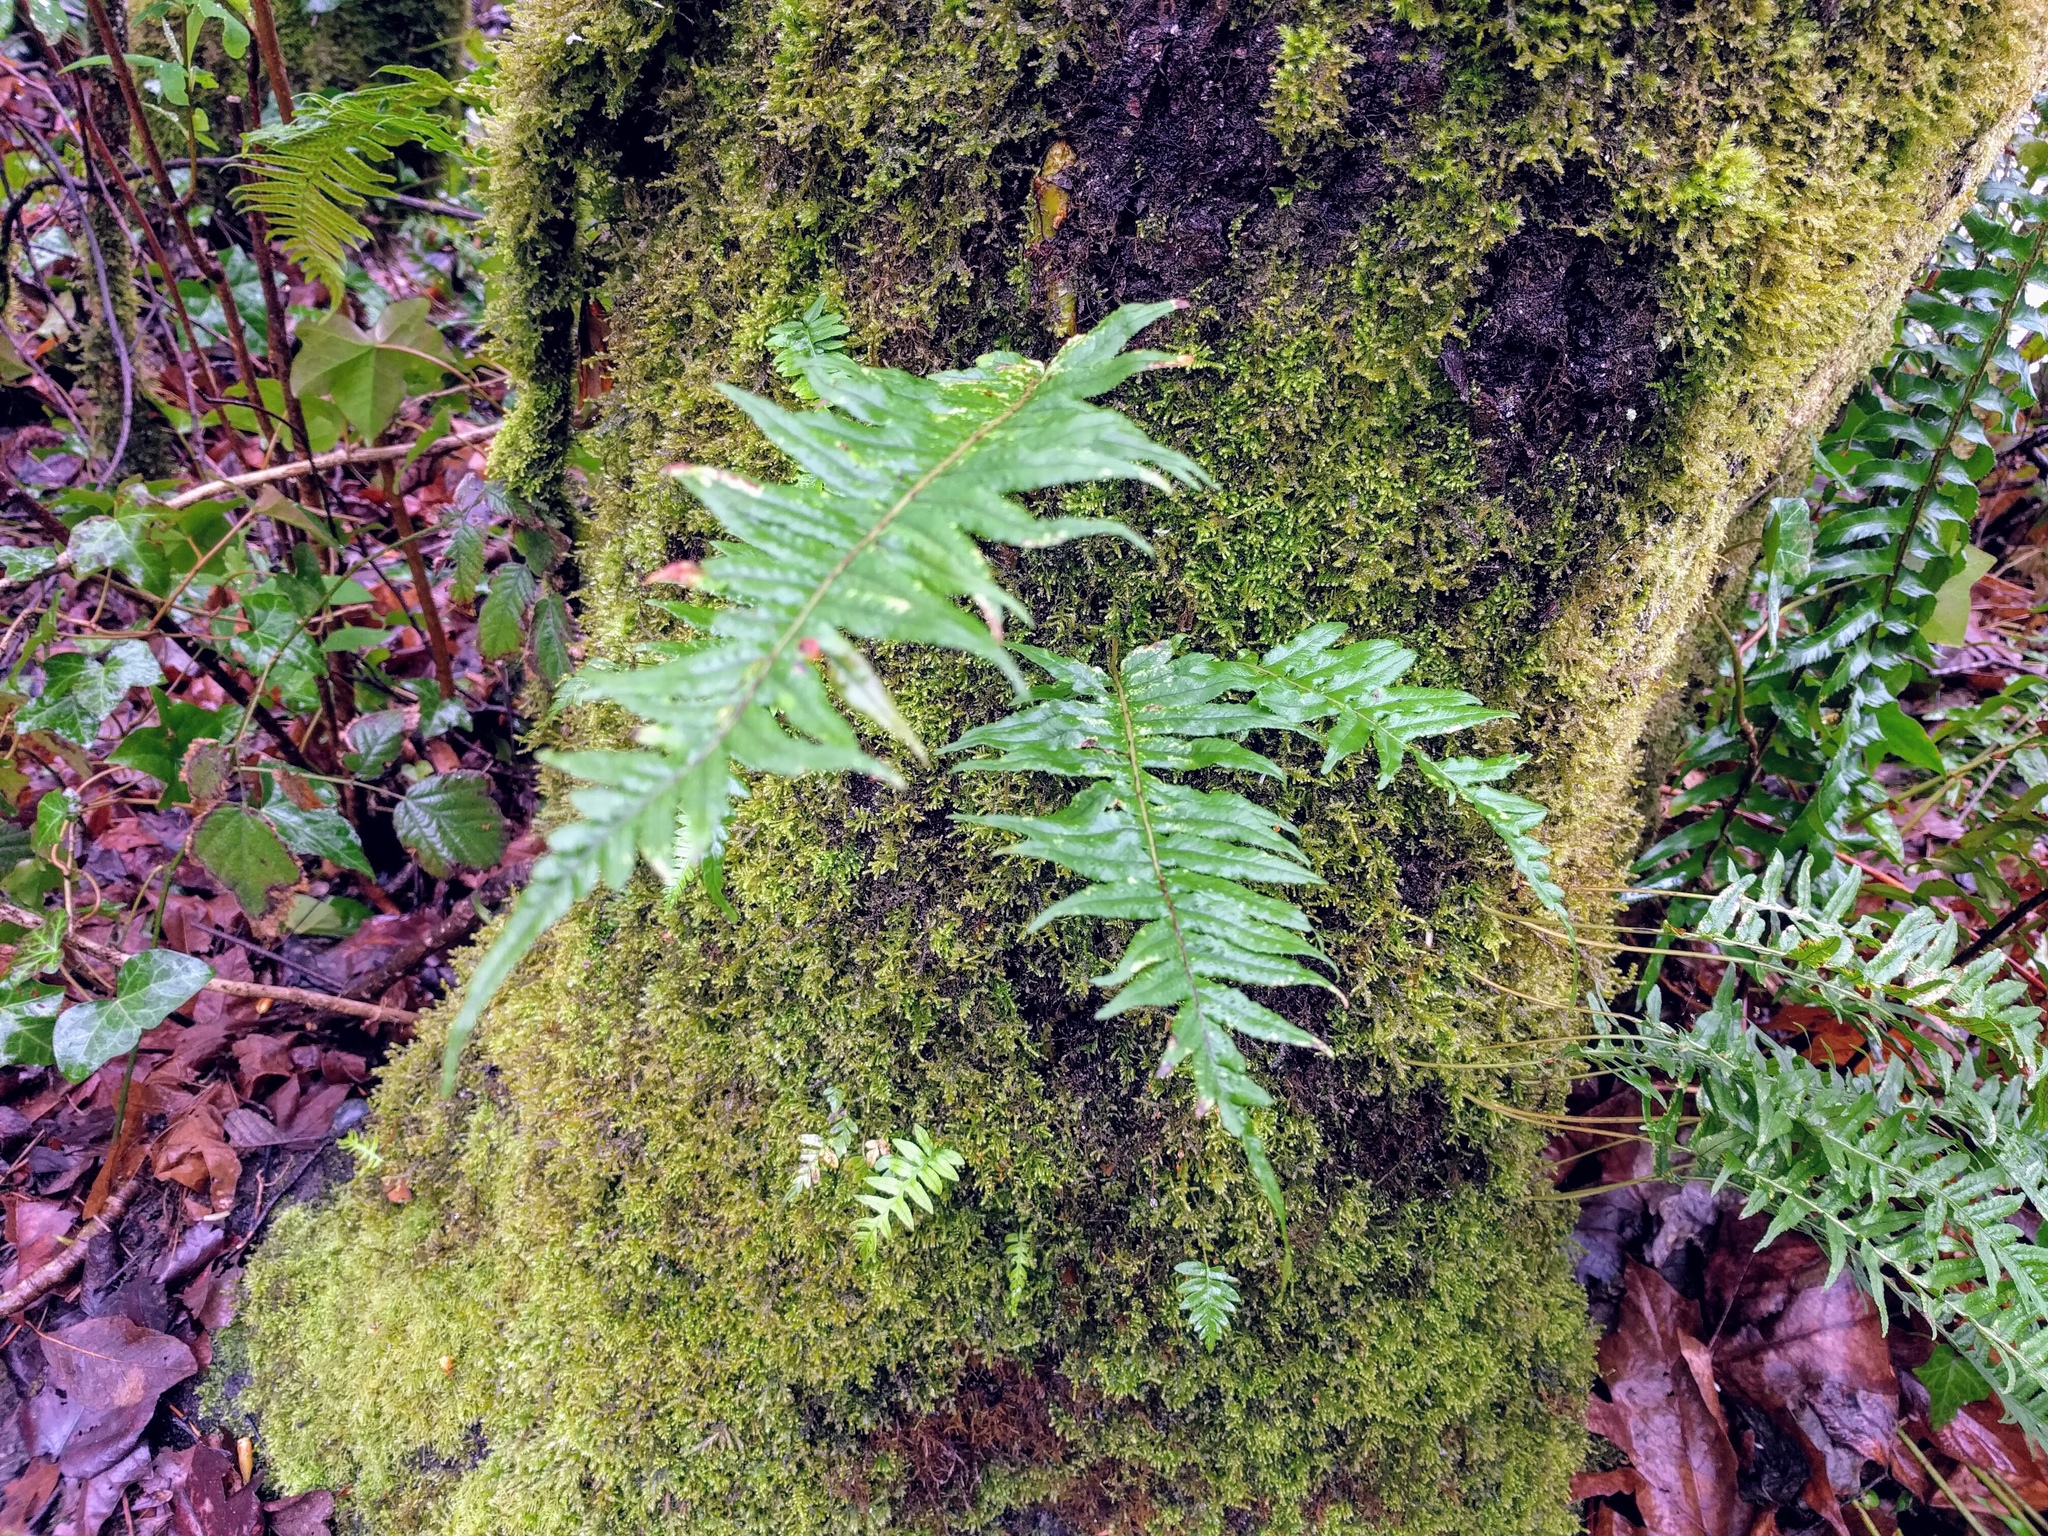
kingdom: Plantae
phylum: Tracheophyta
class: Polypodiopsida
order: Polypodiales
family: Polypodiaceae
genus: Polypodium
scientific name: Polypodium glycyrrhiza
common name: Licorice fern
